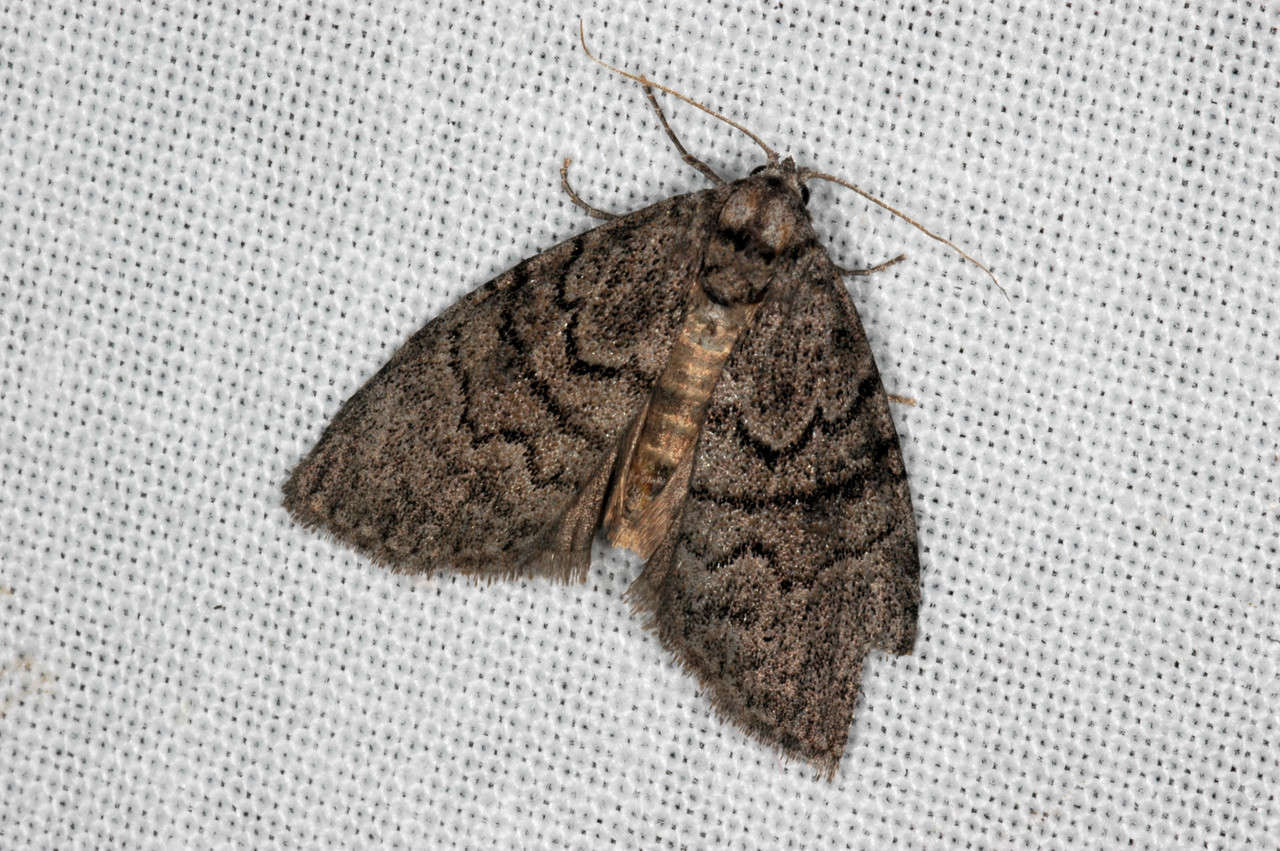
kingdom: Animalia
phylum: Arthropoda
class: Insecta
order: Lepidoptera
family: Nolidae
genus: Uraba
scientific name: Uraba lugens
